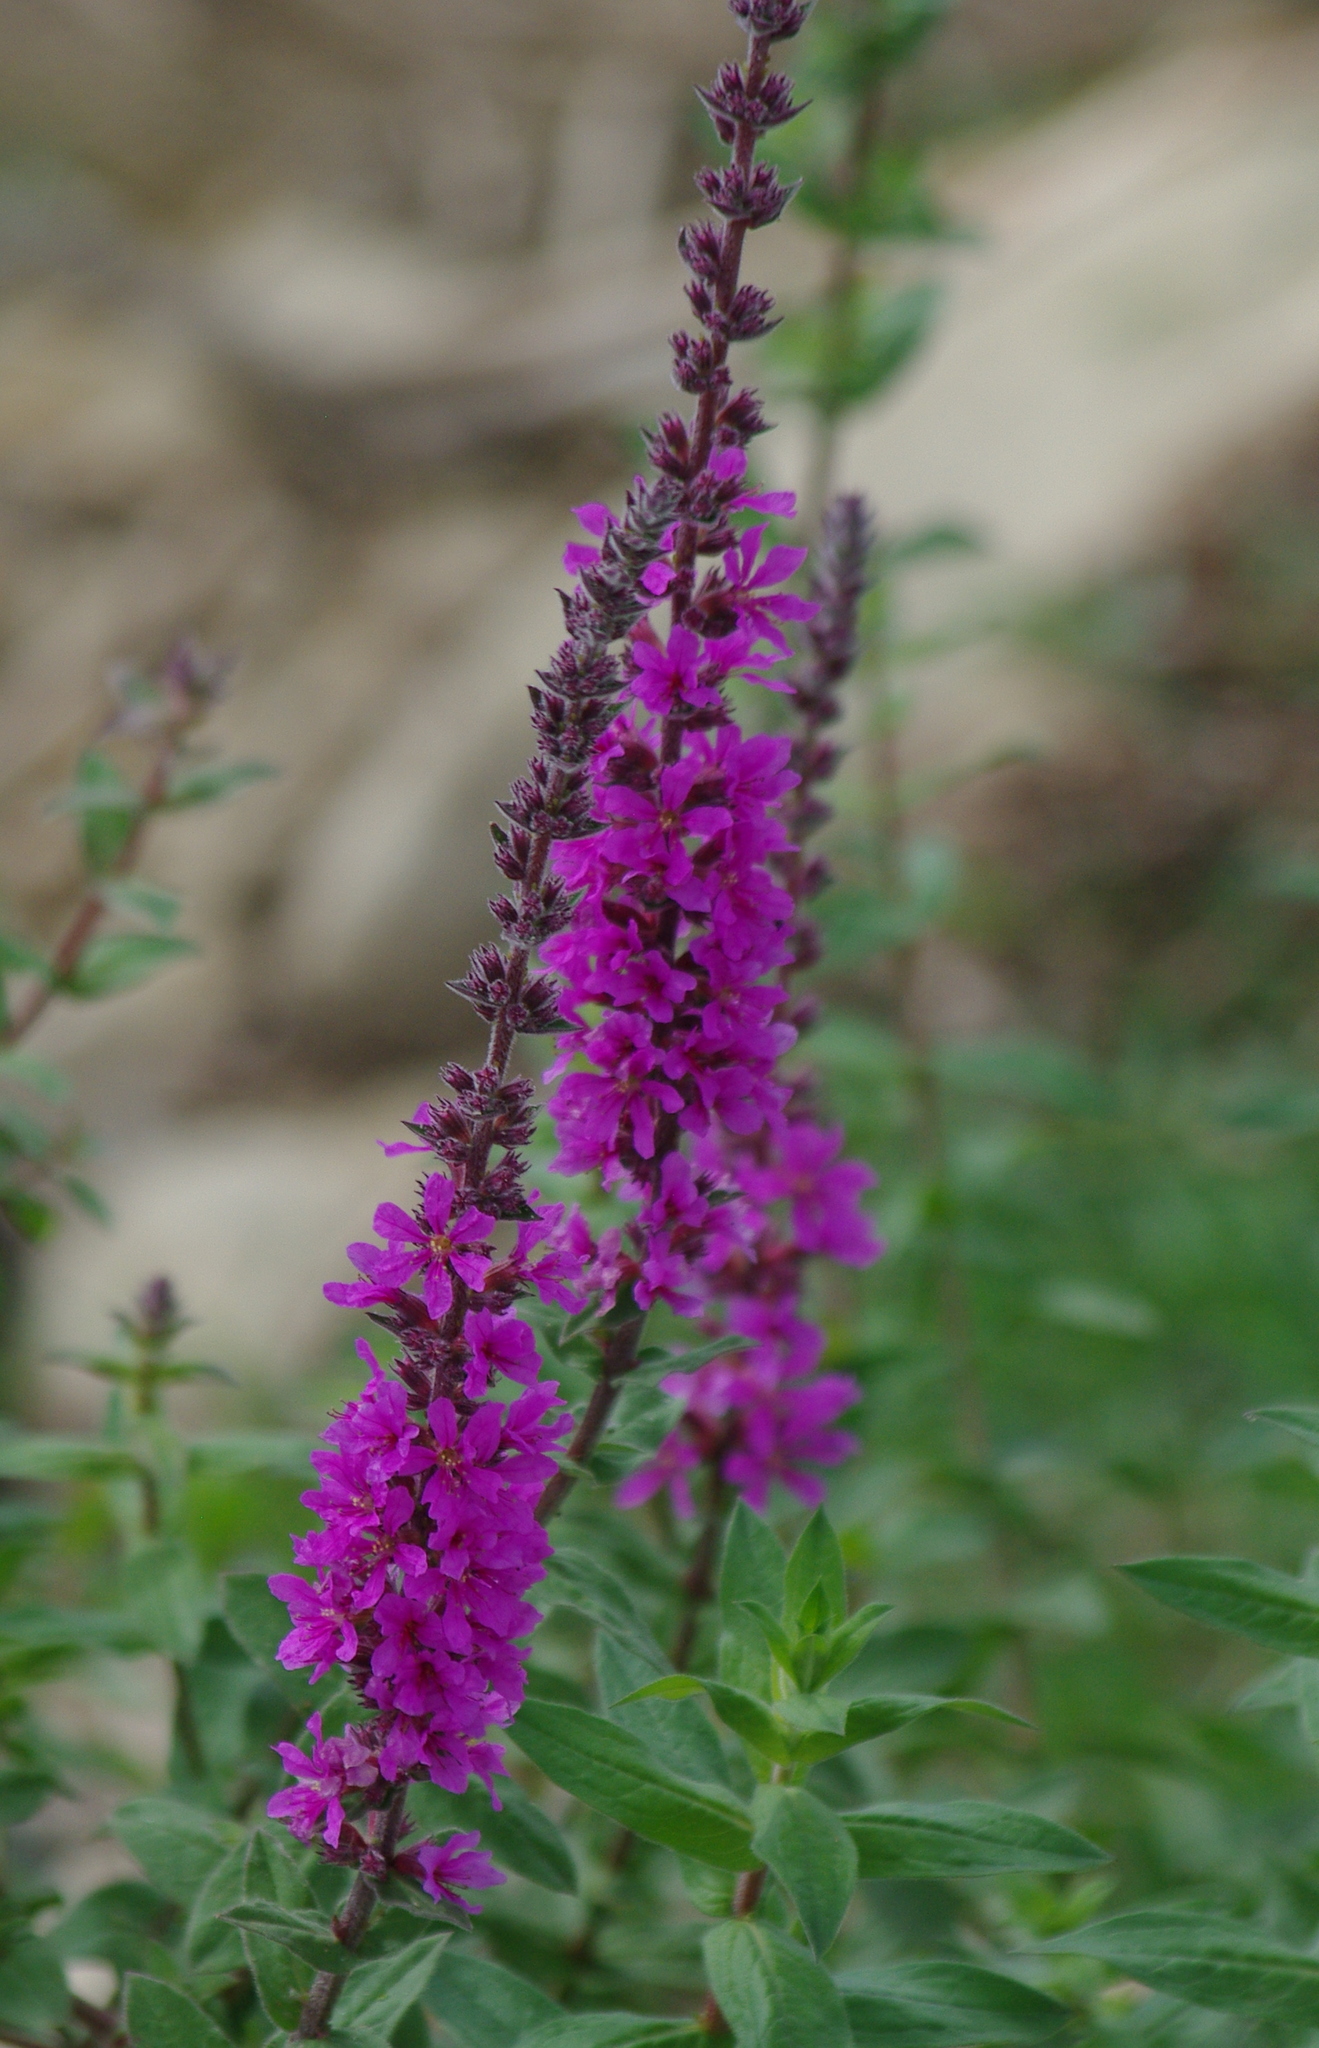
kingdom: Plantae
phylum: Tracheophyta
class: Magnoliopsida
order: Myrtales
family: Lythraceae
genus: Lythrum
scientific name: Lythrum salicaria
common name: Purple loosestrife
